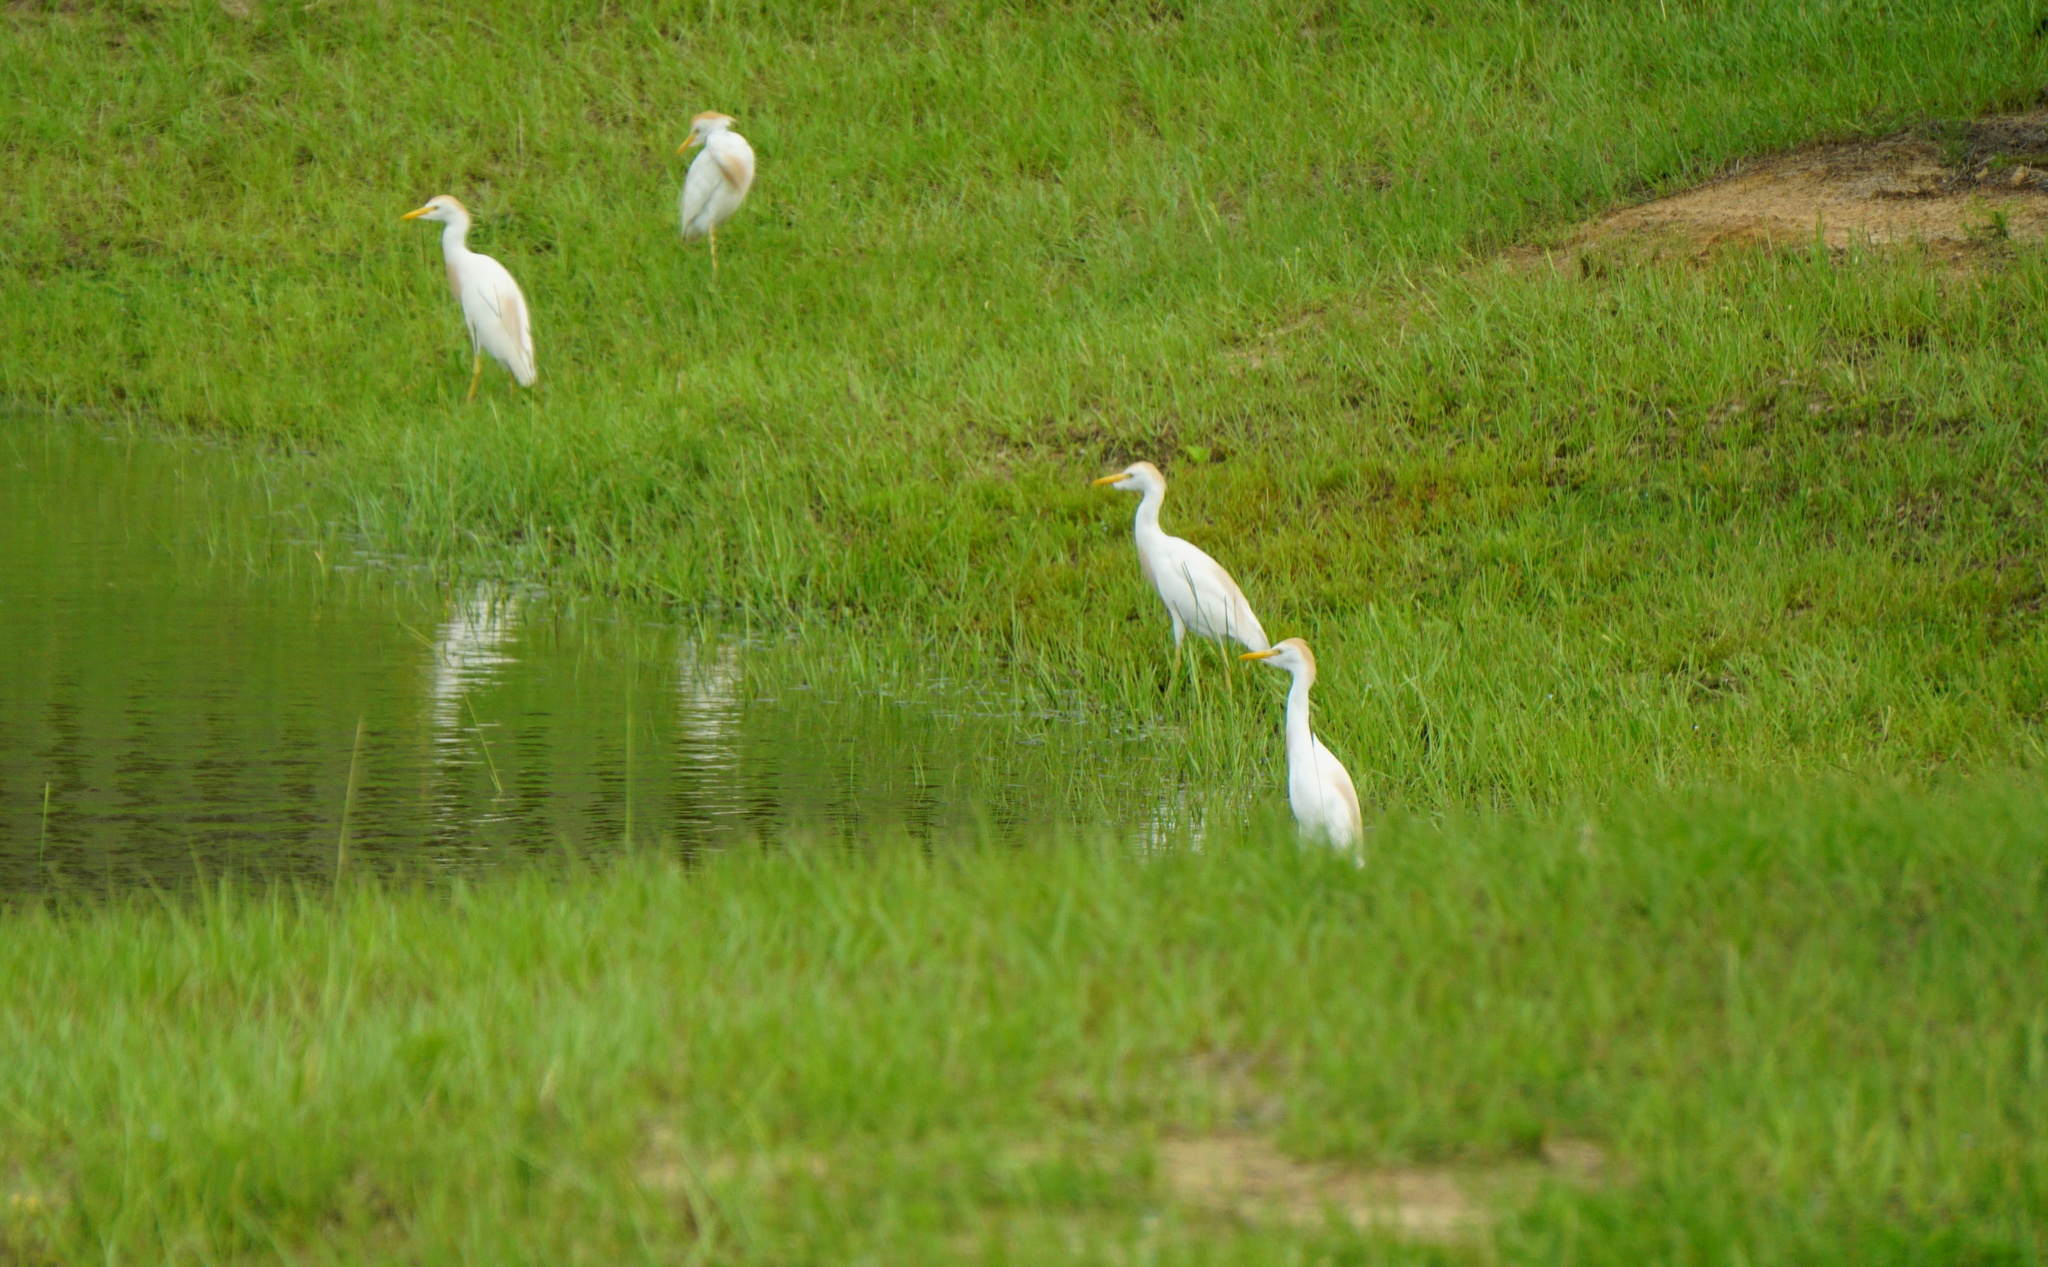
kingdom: Animalia
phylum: Chordata
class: Aves
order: Pelecaniformes
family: Ardeidae
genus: Bubulcus
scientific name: Bubulcus ibis
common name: Cattle egret
